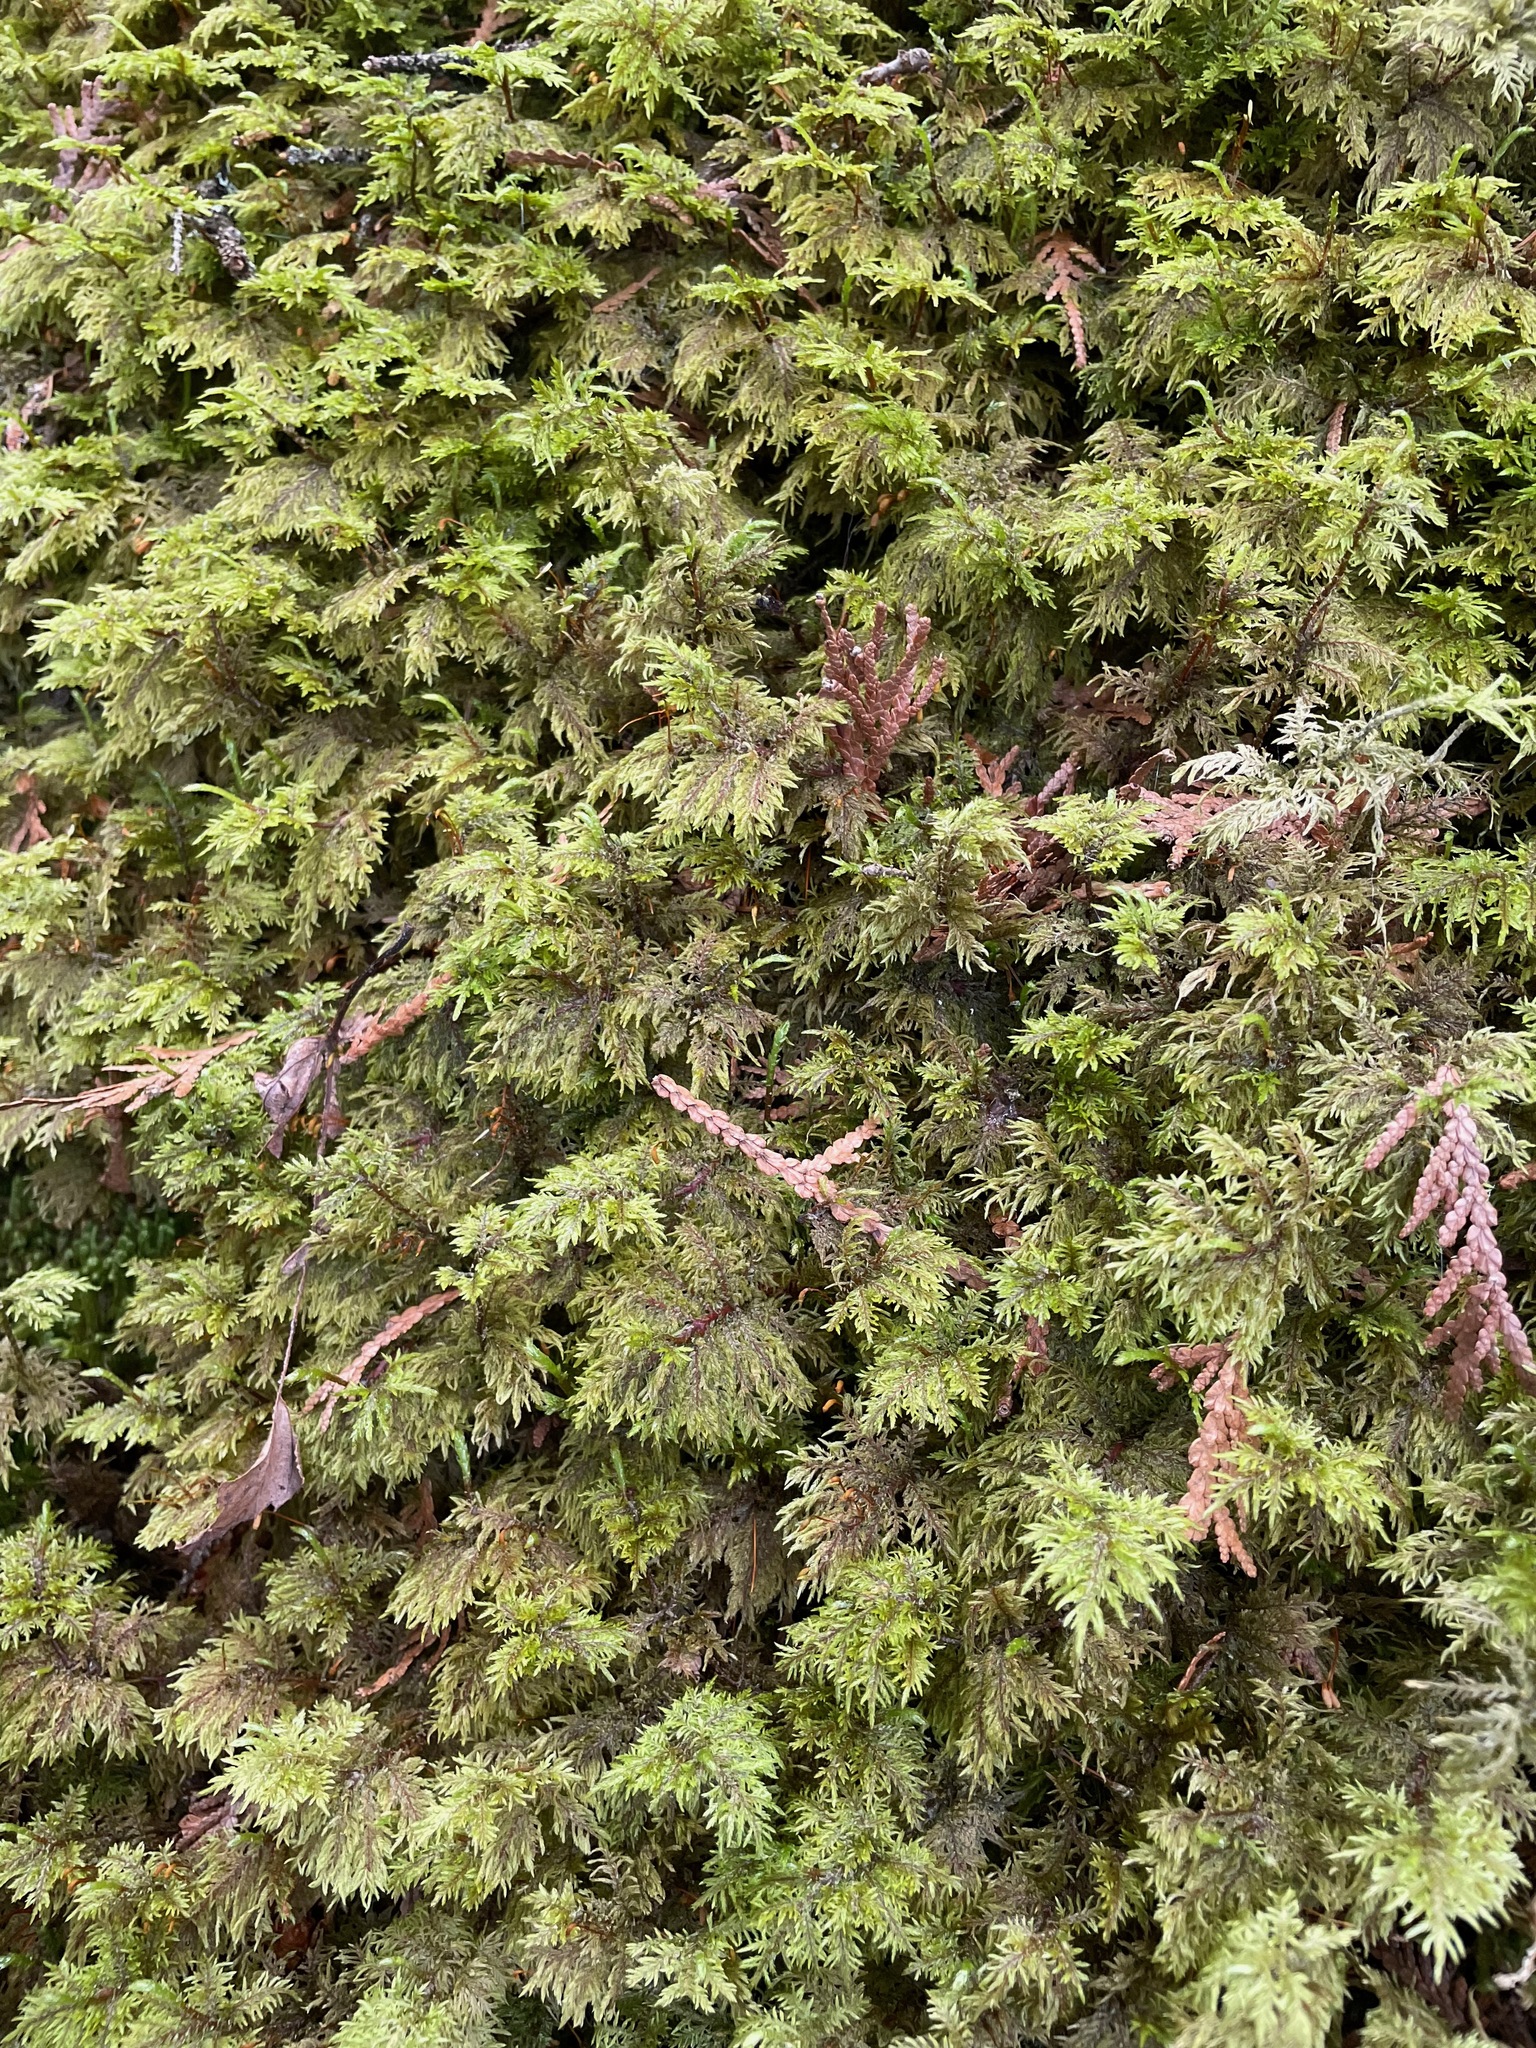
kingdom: Plantae
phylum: Bryophyta
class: Bryopsida
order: Hypnales
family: Hylocomiaceae
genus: Hylocomium
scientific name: Hylocomium splendens
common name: Stairstep moss
